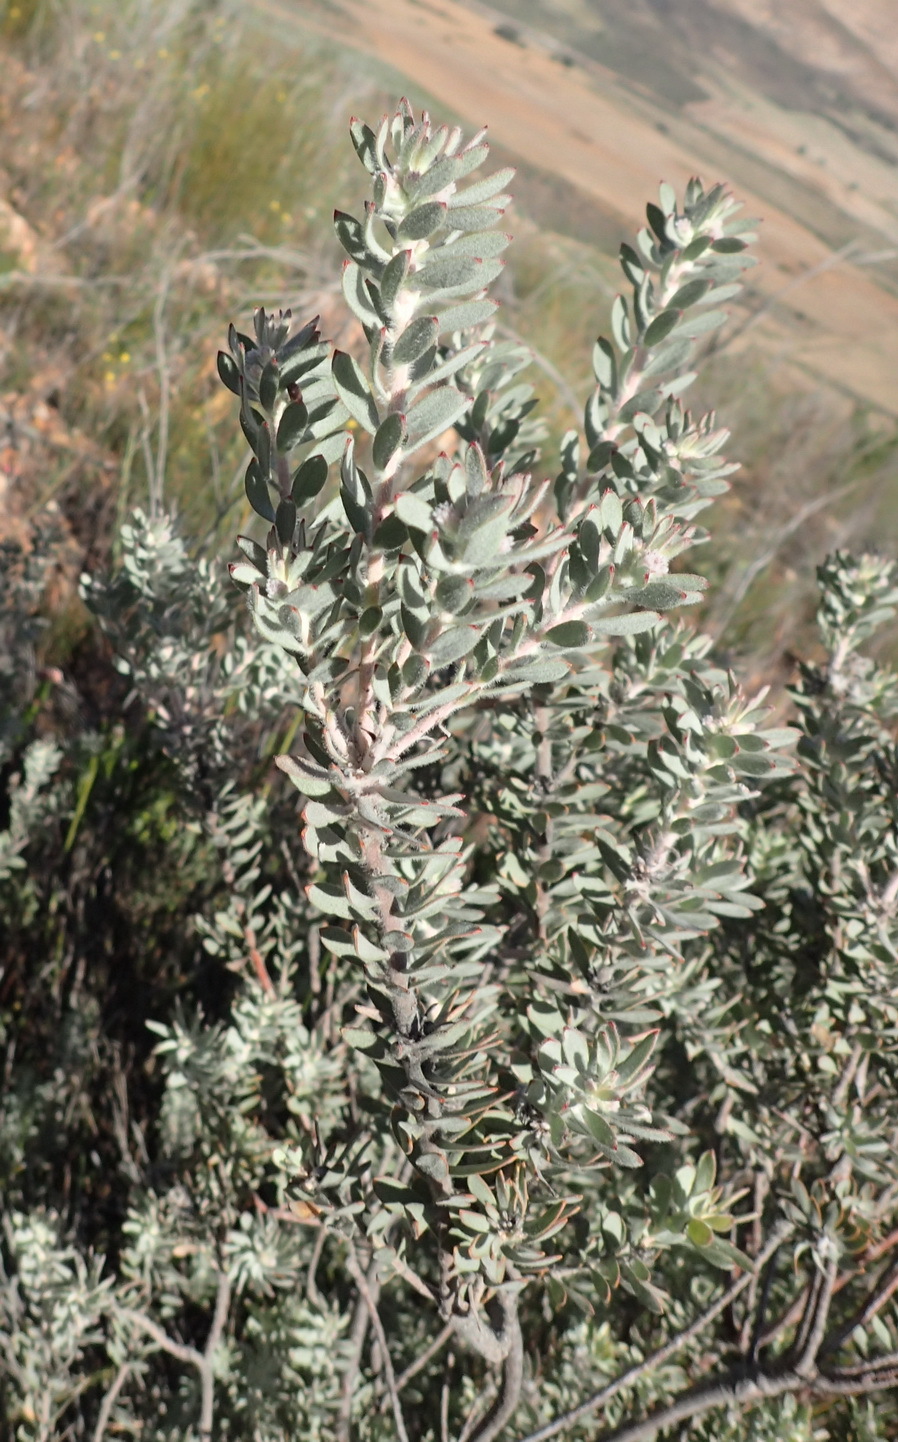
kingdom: Plantae
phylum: Tracheophyta
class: Magnoliopsida
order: Proteales
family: Proteaceae
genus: Leucospermum
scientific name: Leucospermum wittebergense
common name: Swartberg pincushion
